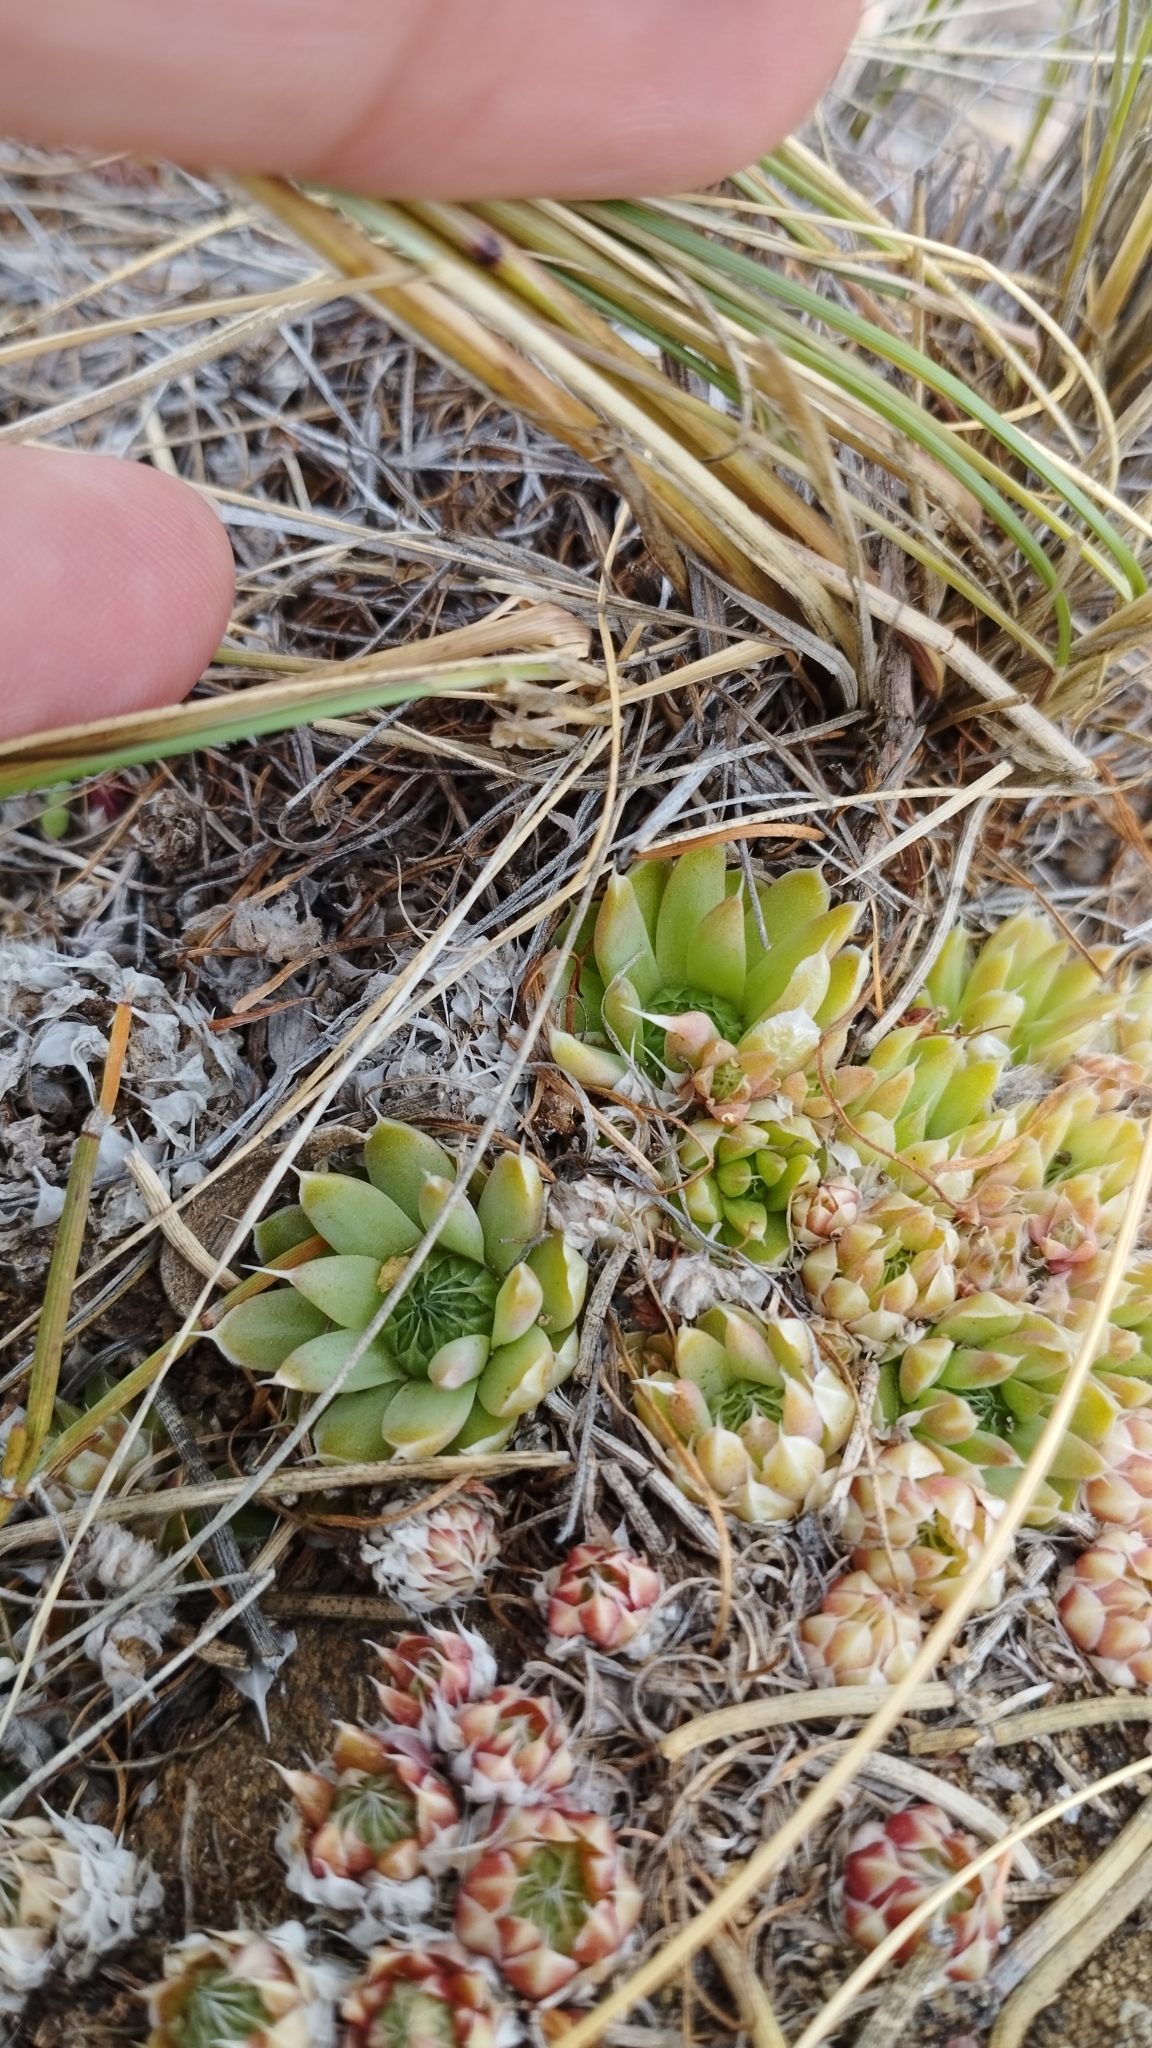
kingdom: Plantae
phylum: Tracheophyta
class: Magnoliopsida
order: Saxifragales
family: Crassulaceae
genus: Orostachys
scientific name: Orostachys spinosa
